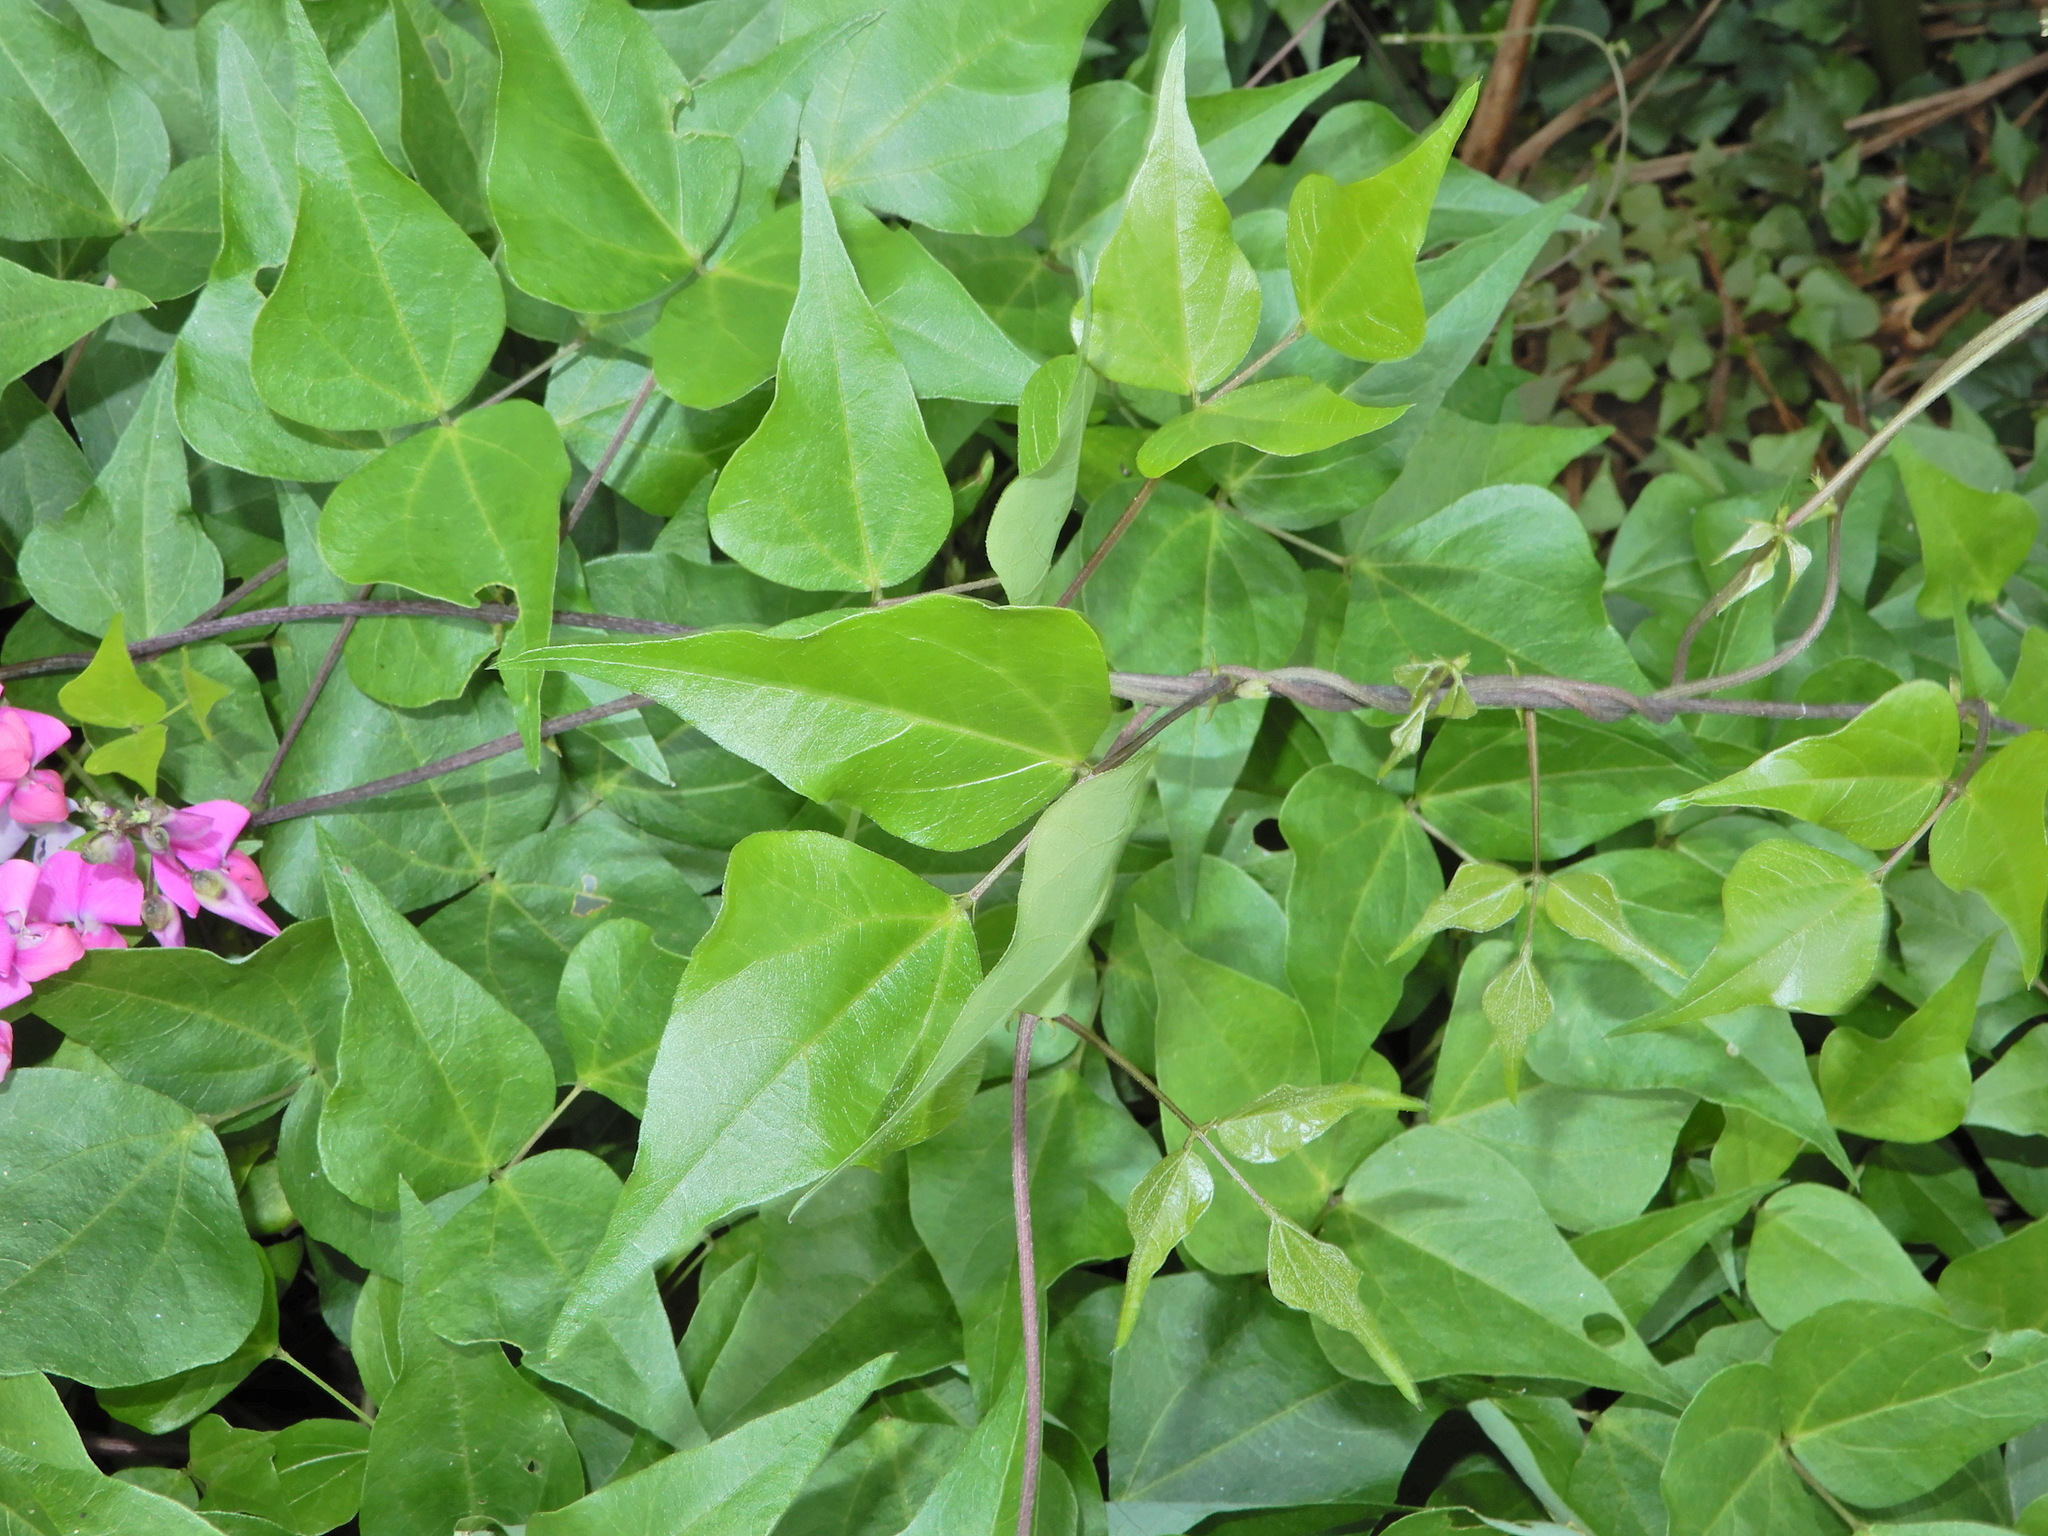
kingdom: Plantae
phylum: Tracheophyta
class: Magnoliopsida
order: Fabales
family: Fabaceae
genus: Dipogon
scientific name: Dipogon lignosus
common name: Okie bean
